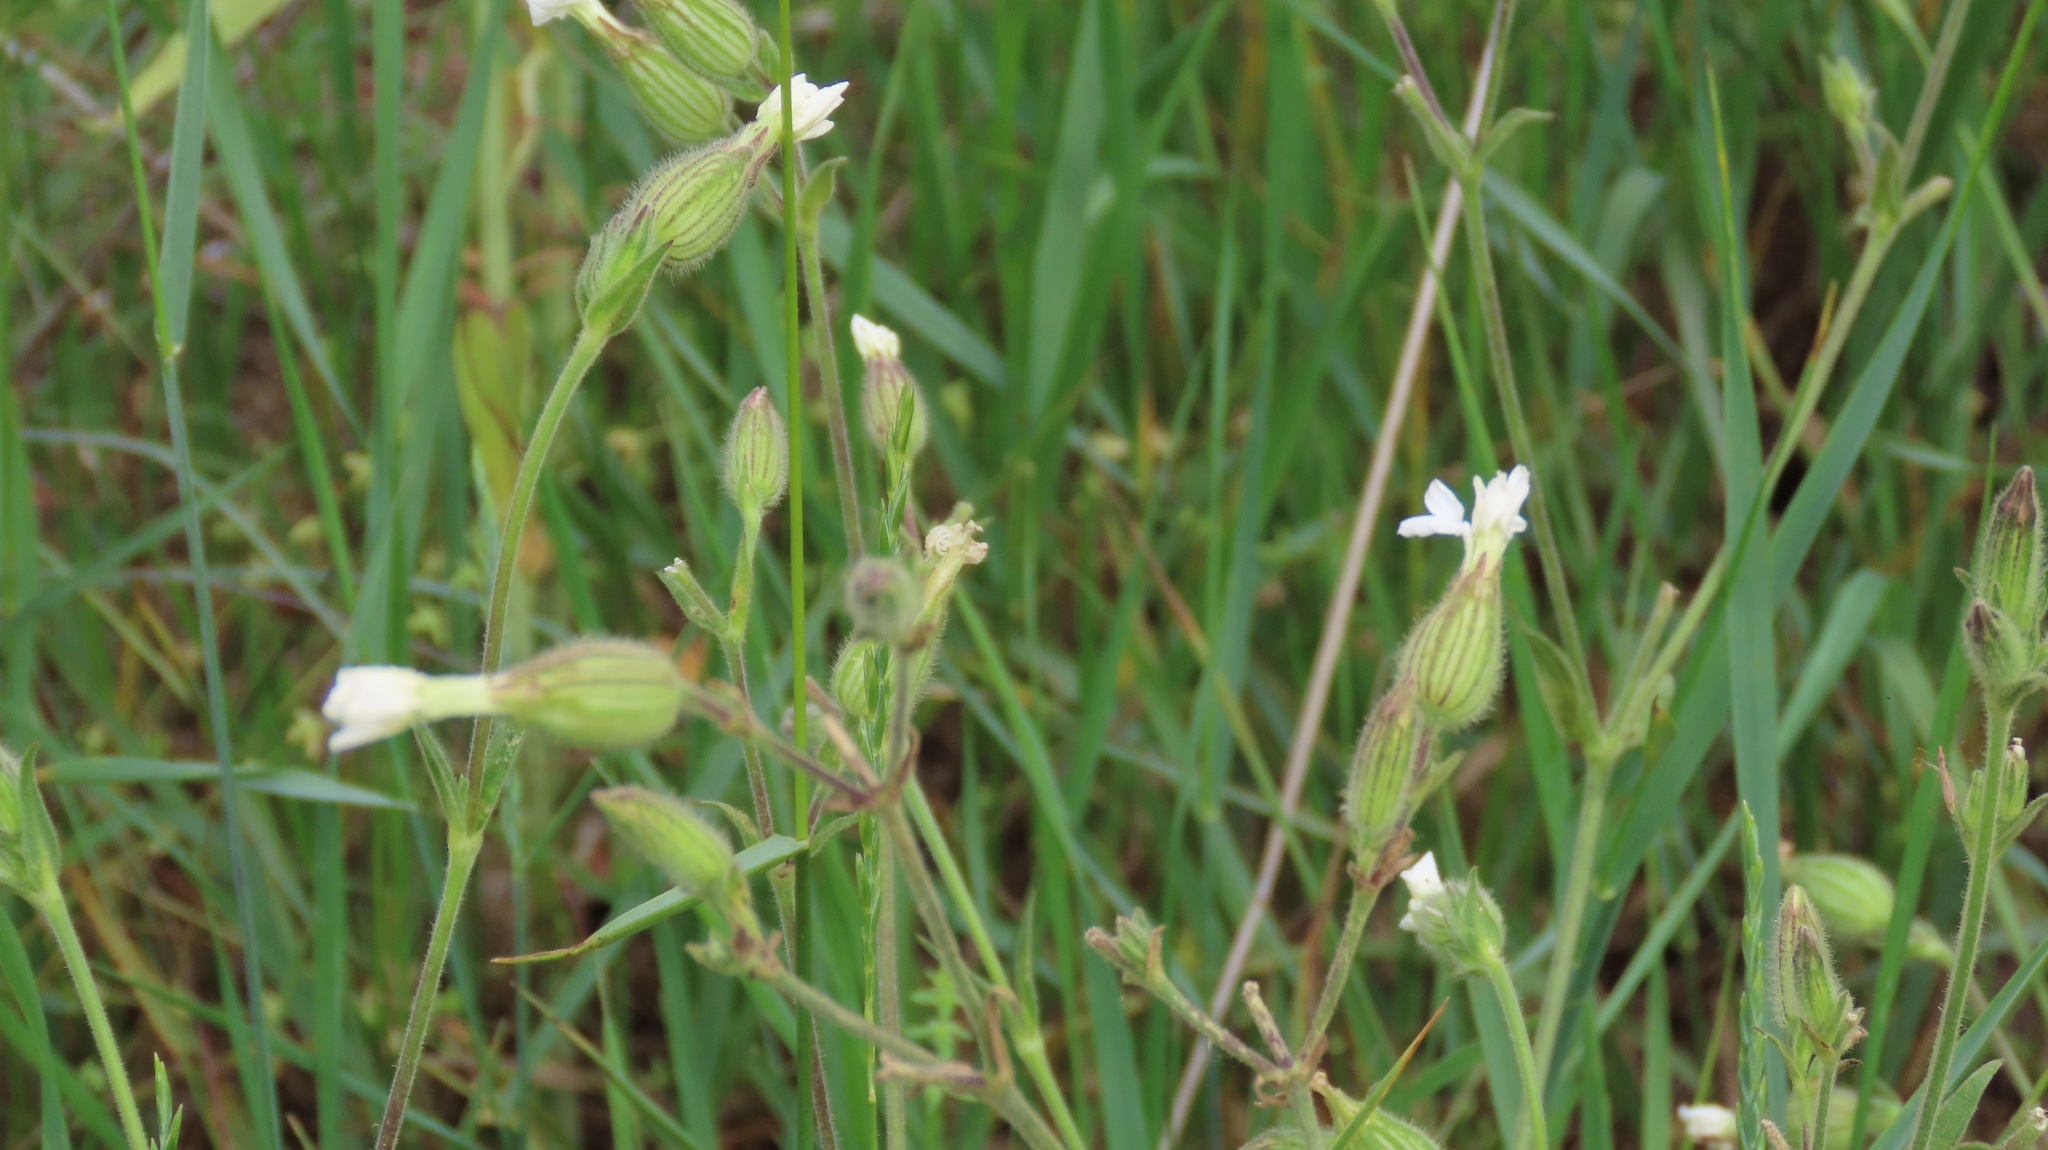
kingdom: Plantae
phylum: Tracheophyta
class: Magnoliopsida
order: Caryophyllales
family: Caryophyllaceae
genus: Silene
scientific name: Silene latifolia
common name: White campion
